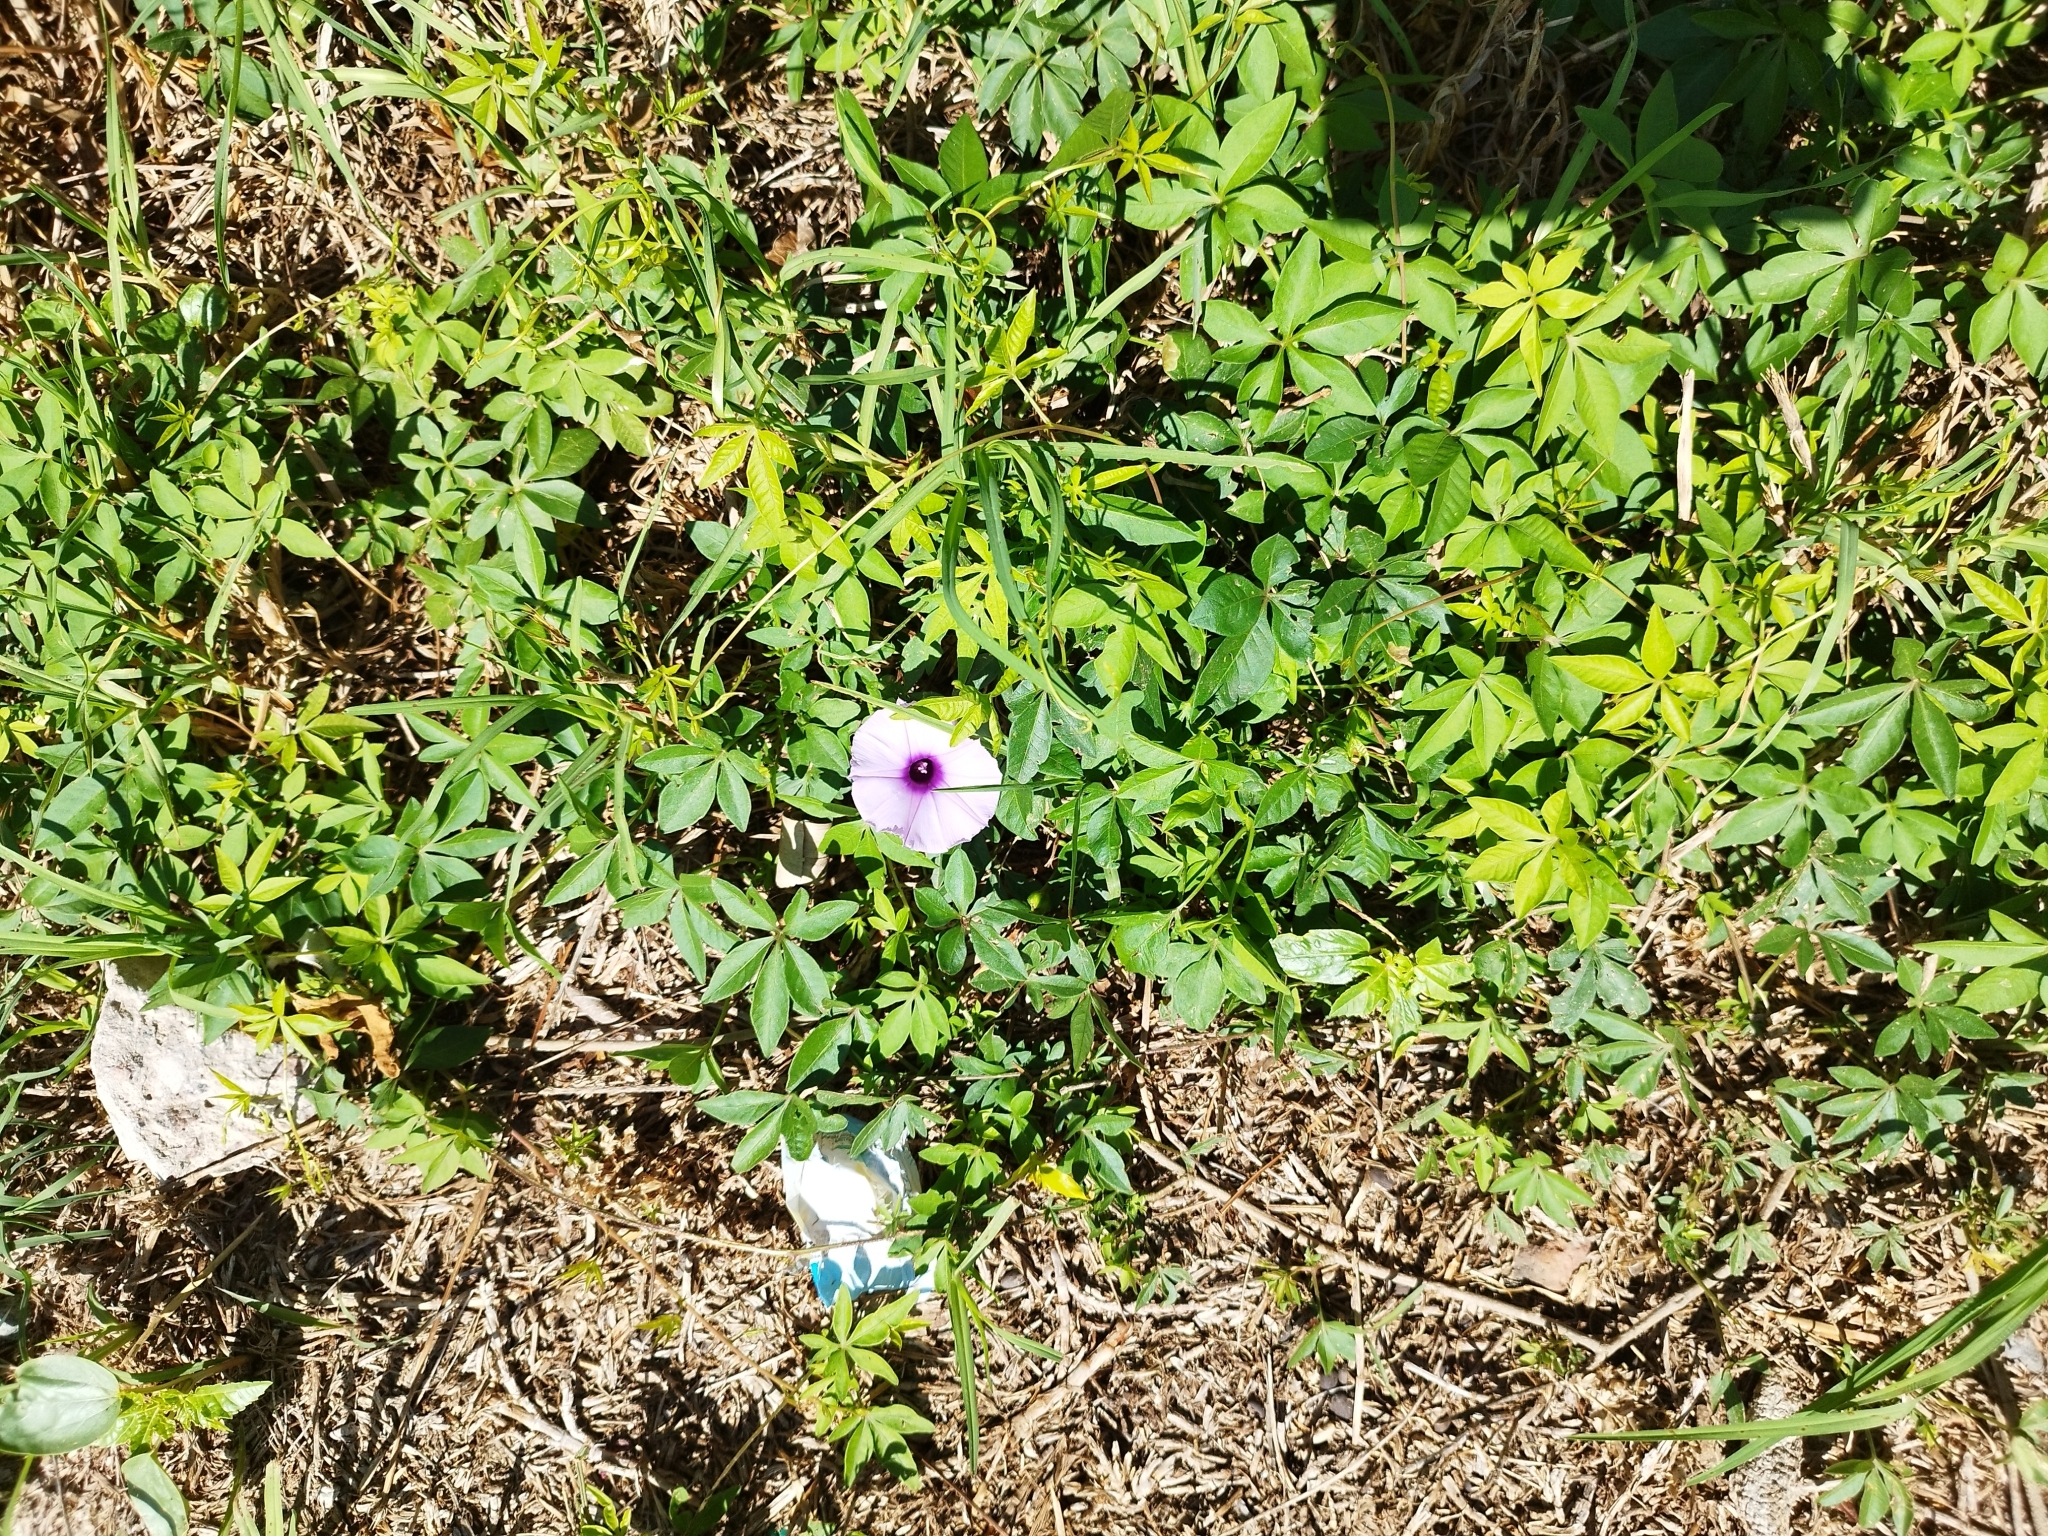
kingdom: Plantae
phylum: Tracheophyta
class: Magnoliopsida
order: Solanales
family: Convolvulaceae
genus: Ipomoea
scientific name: Ipomoea cairica
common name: Mile a minute vine
